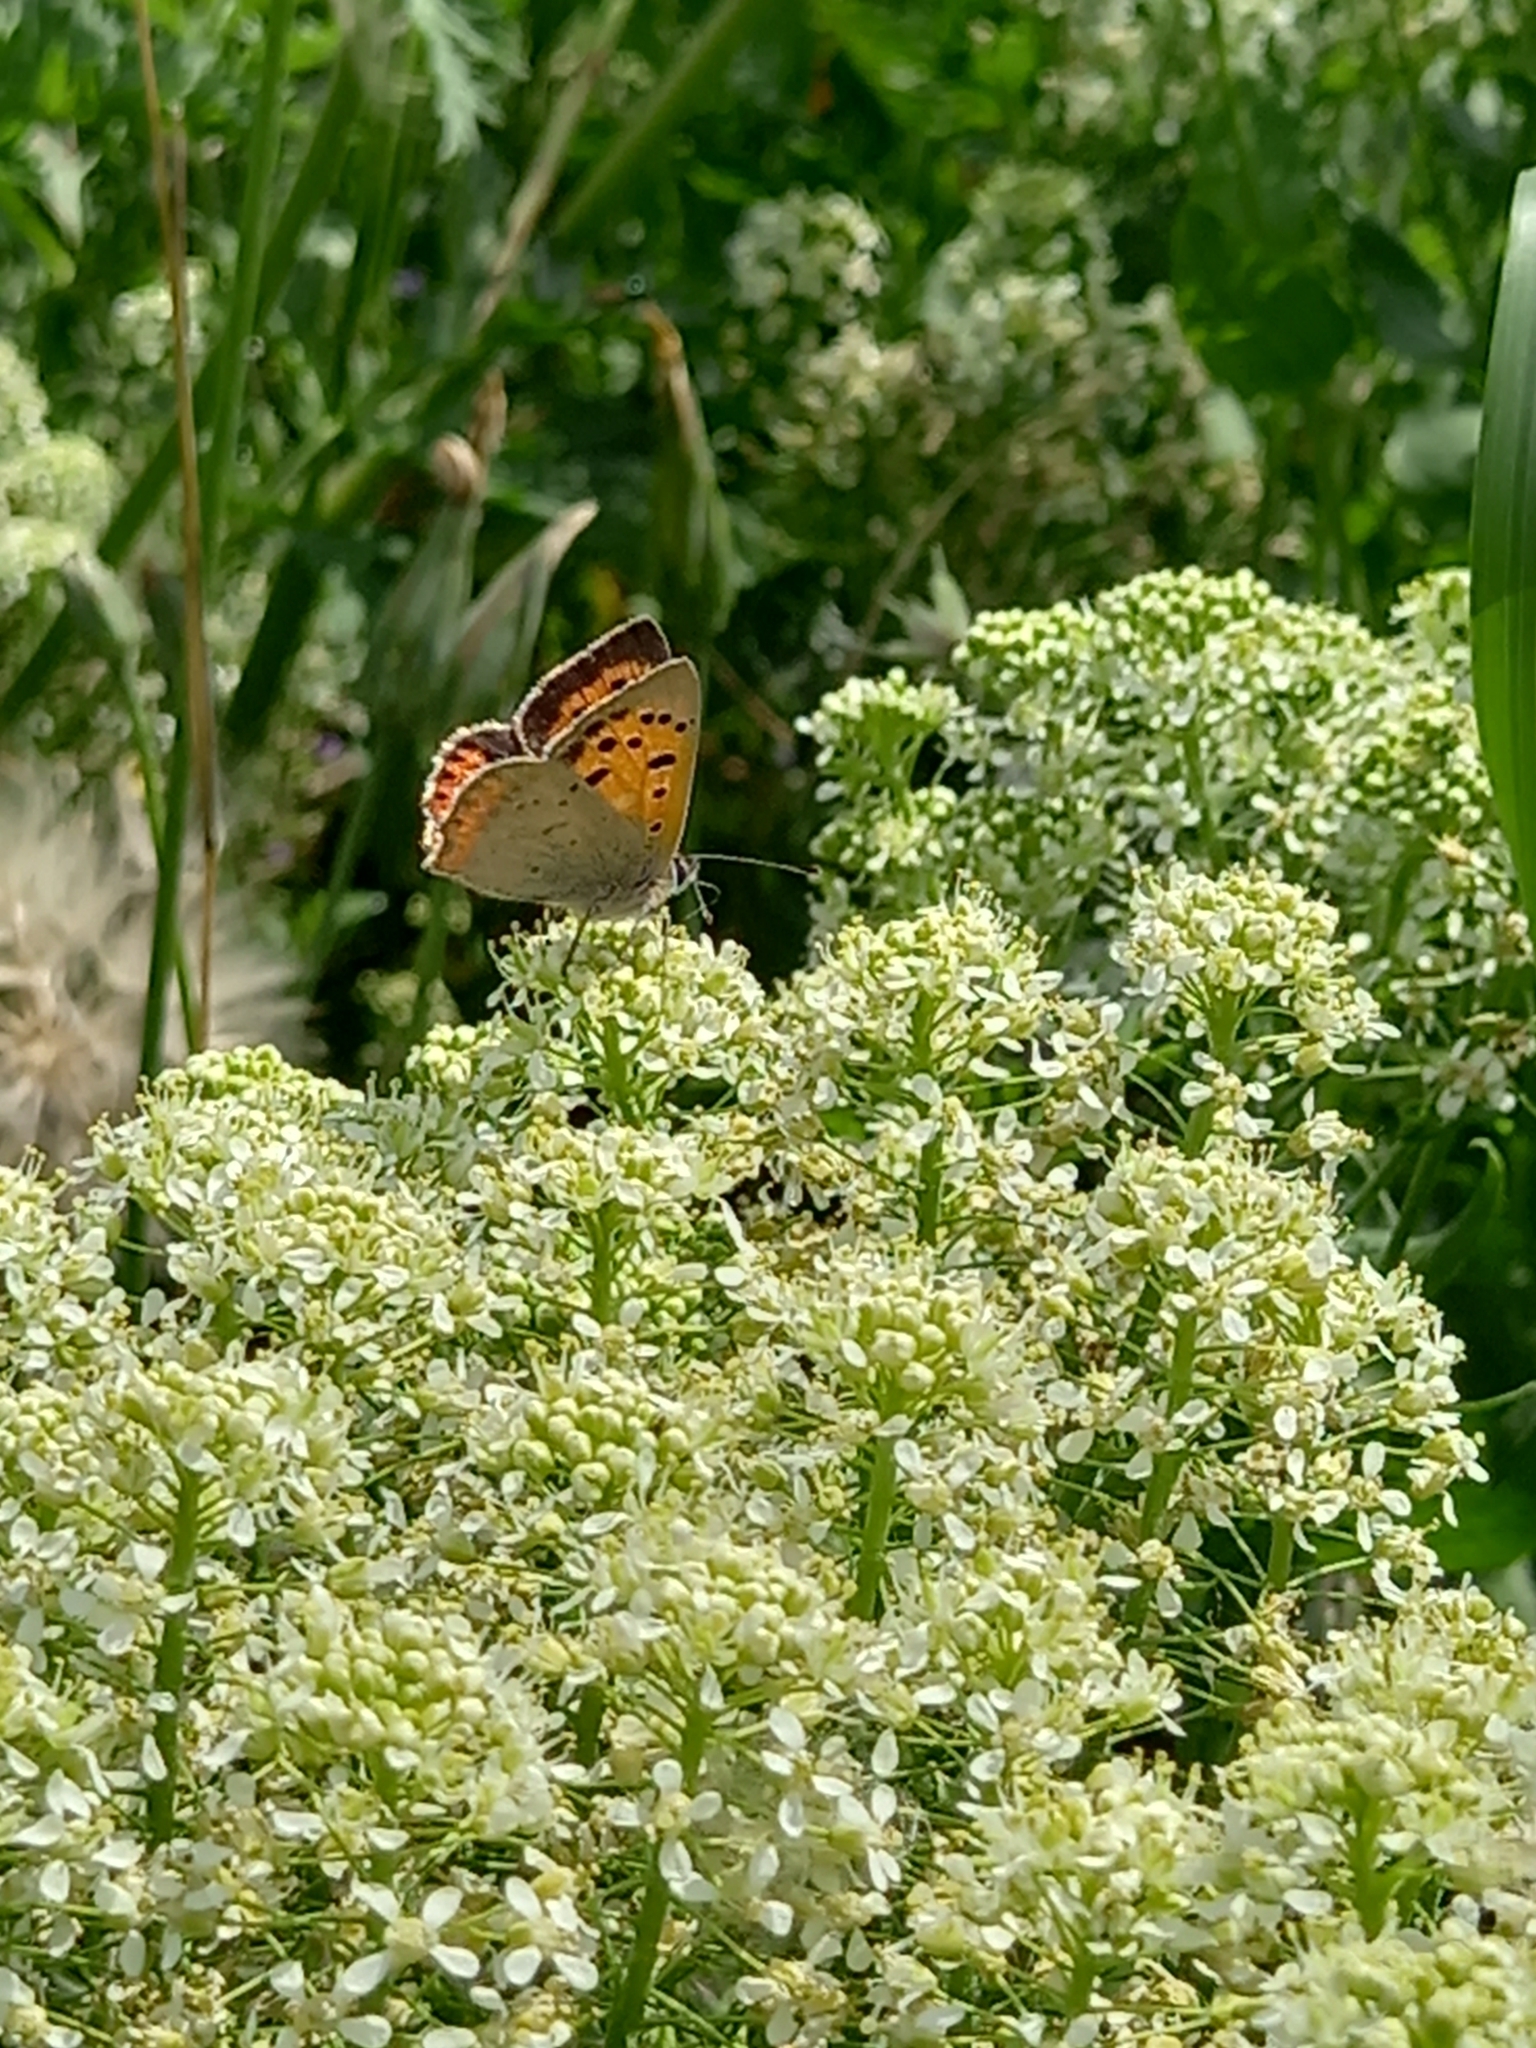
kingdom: Animalia
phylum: Arthropoda
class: Insecta
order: Lepidoptera
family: Lycaenidae
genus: Lycaena
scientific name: Lycaena phlaeas
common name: Small copper
